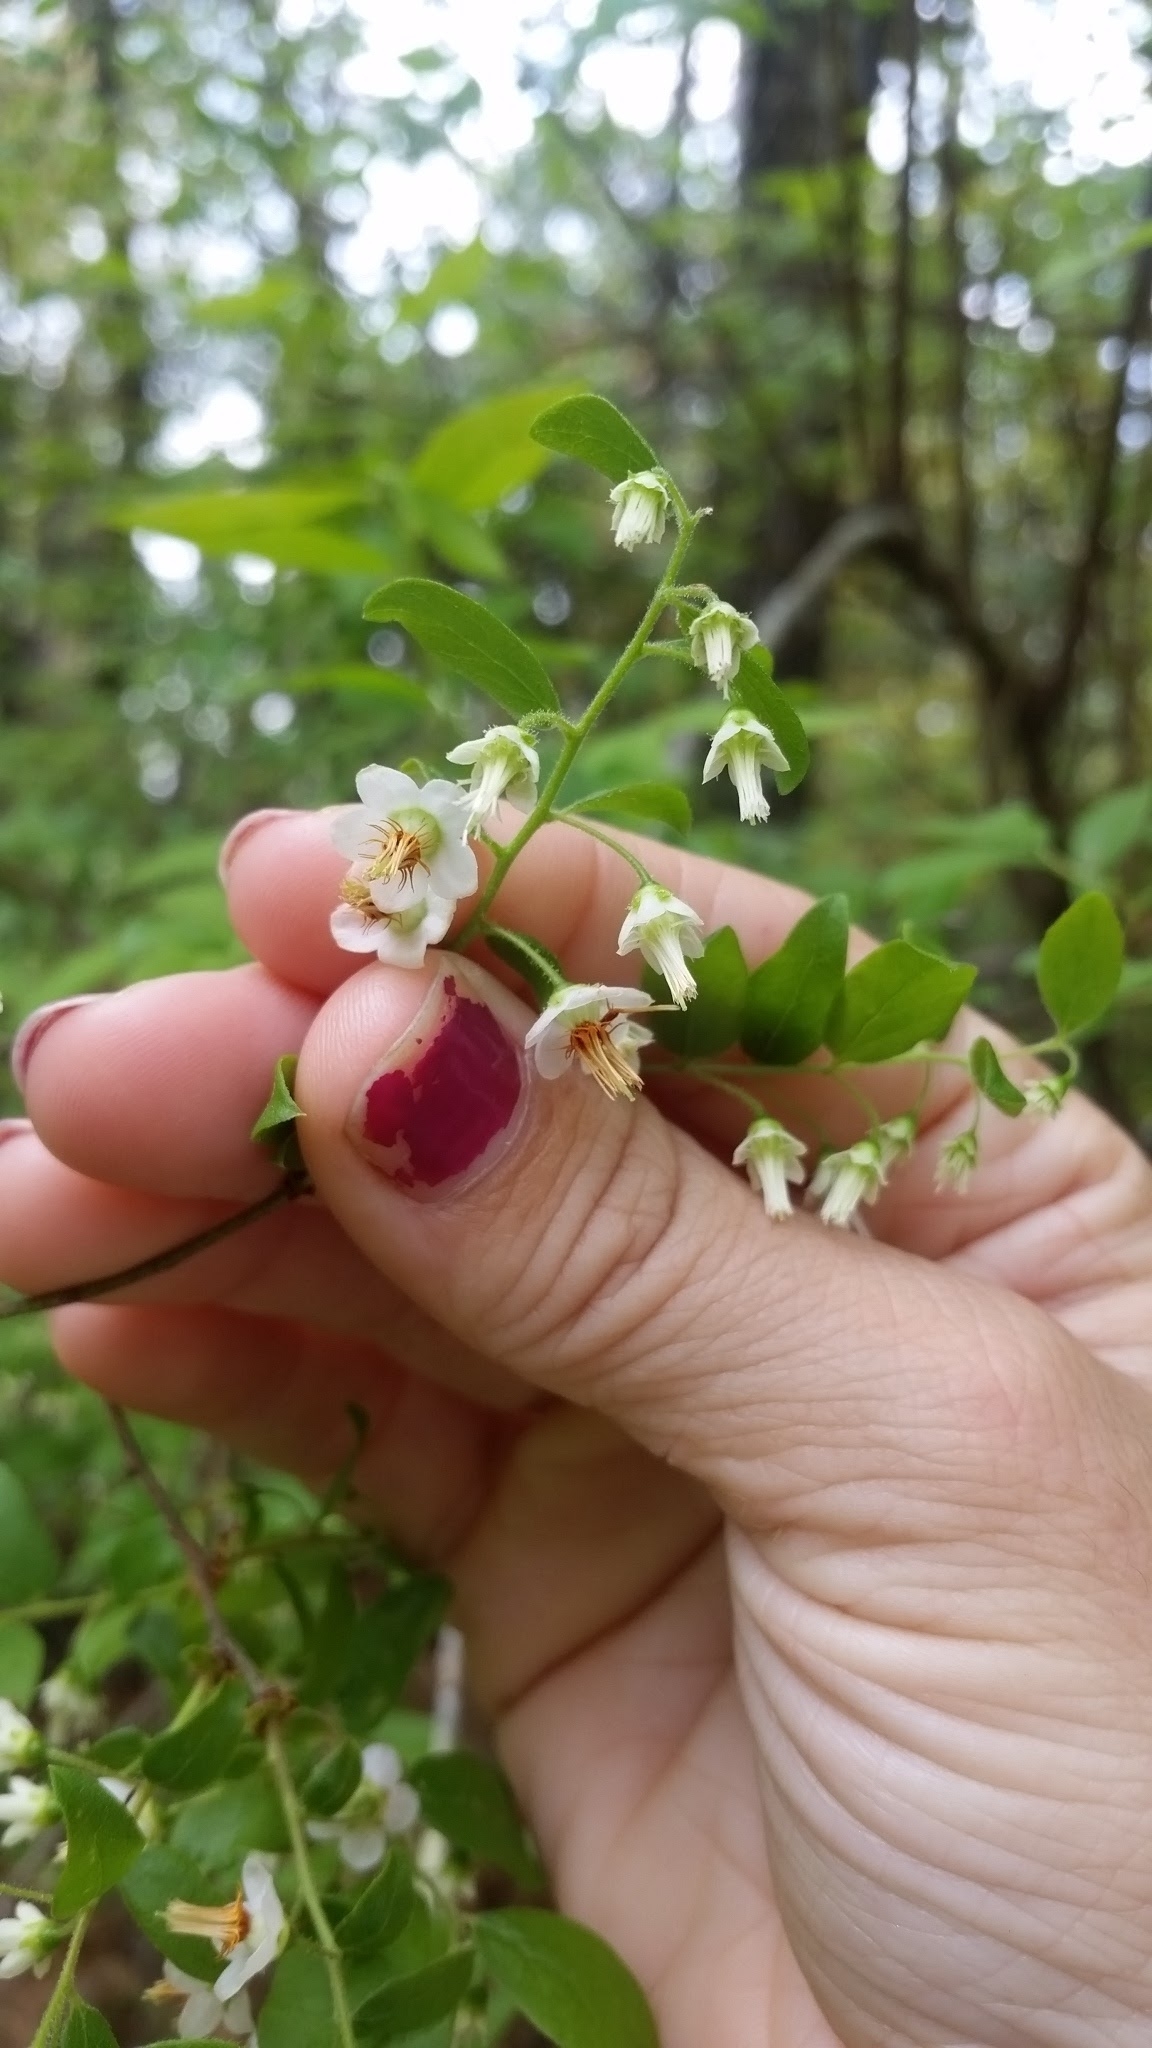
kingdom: Plantae
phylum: Tracheophyta
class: Magnoliopsida
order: Ericales
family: Ericaceae
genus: Vaccinium
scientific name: Vaccinium stamineum
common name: Deerberry
